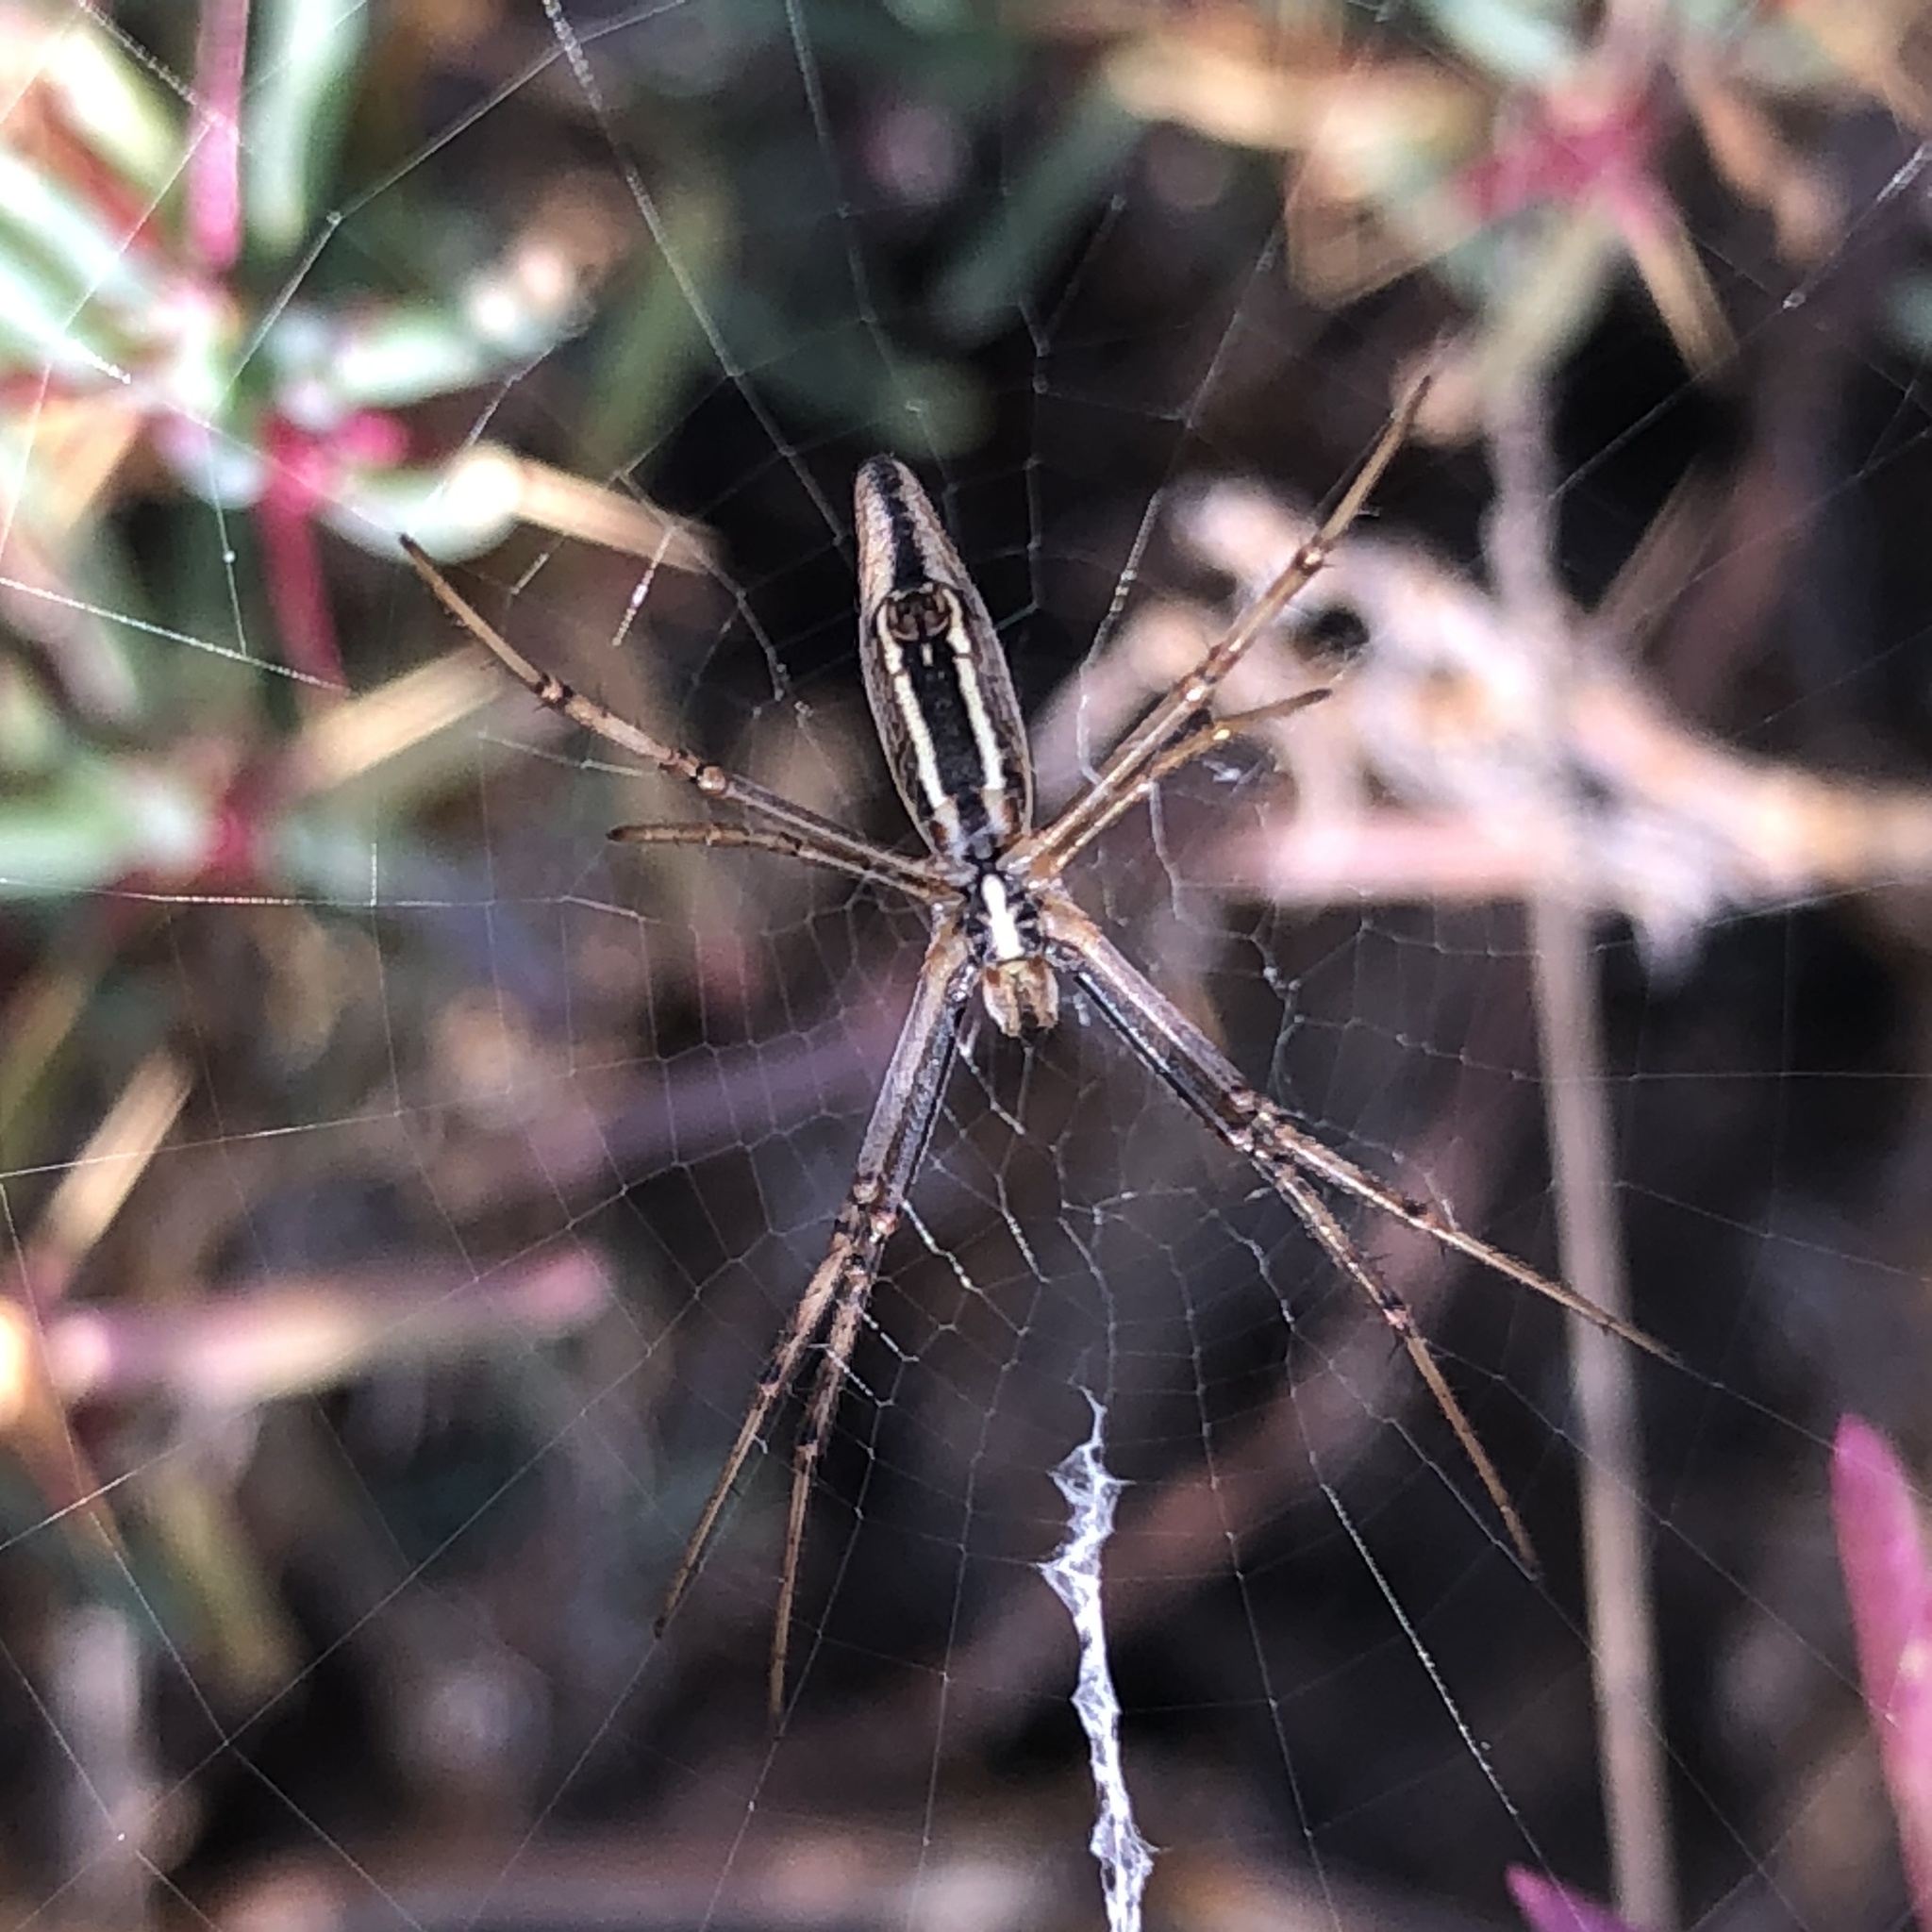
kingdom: Animalia
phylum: Arthropoda
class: Arachnida
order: Araneae
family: Araneidae
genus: Argiope
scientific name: Argiope protensa
